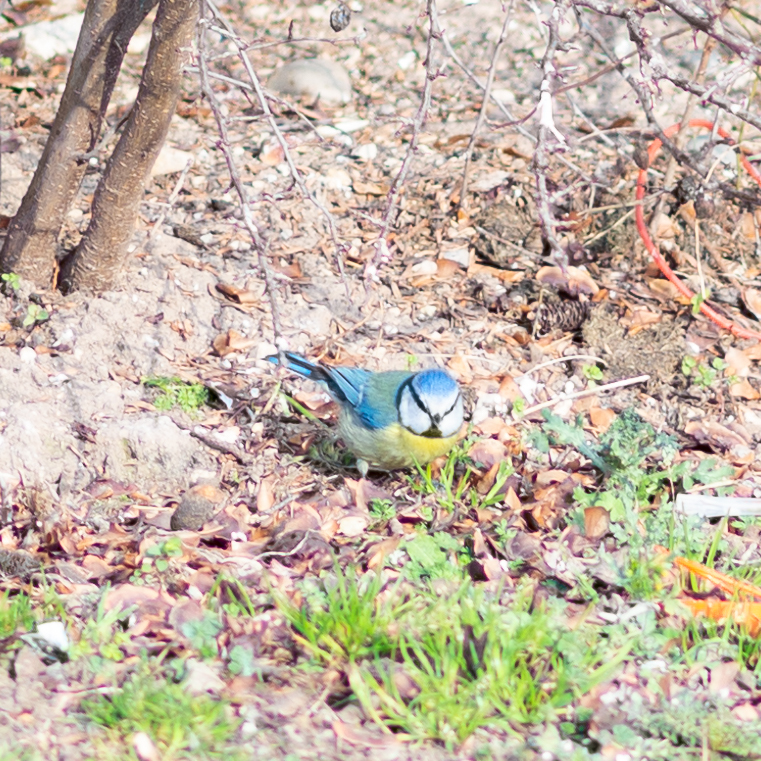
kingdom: Animalia
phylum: Chordata
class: Aves
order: Passeriformes
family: Paridae
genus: Cyanistes
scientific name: Cyanistes caeruleus
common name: Eurasian blue tit
